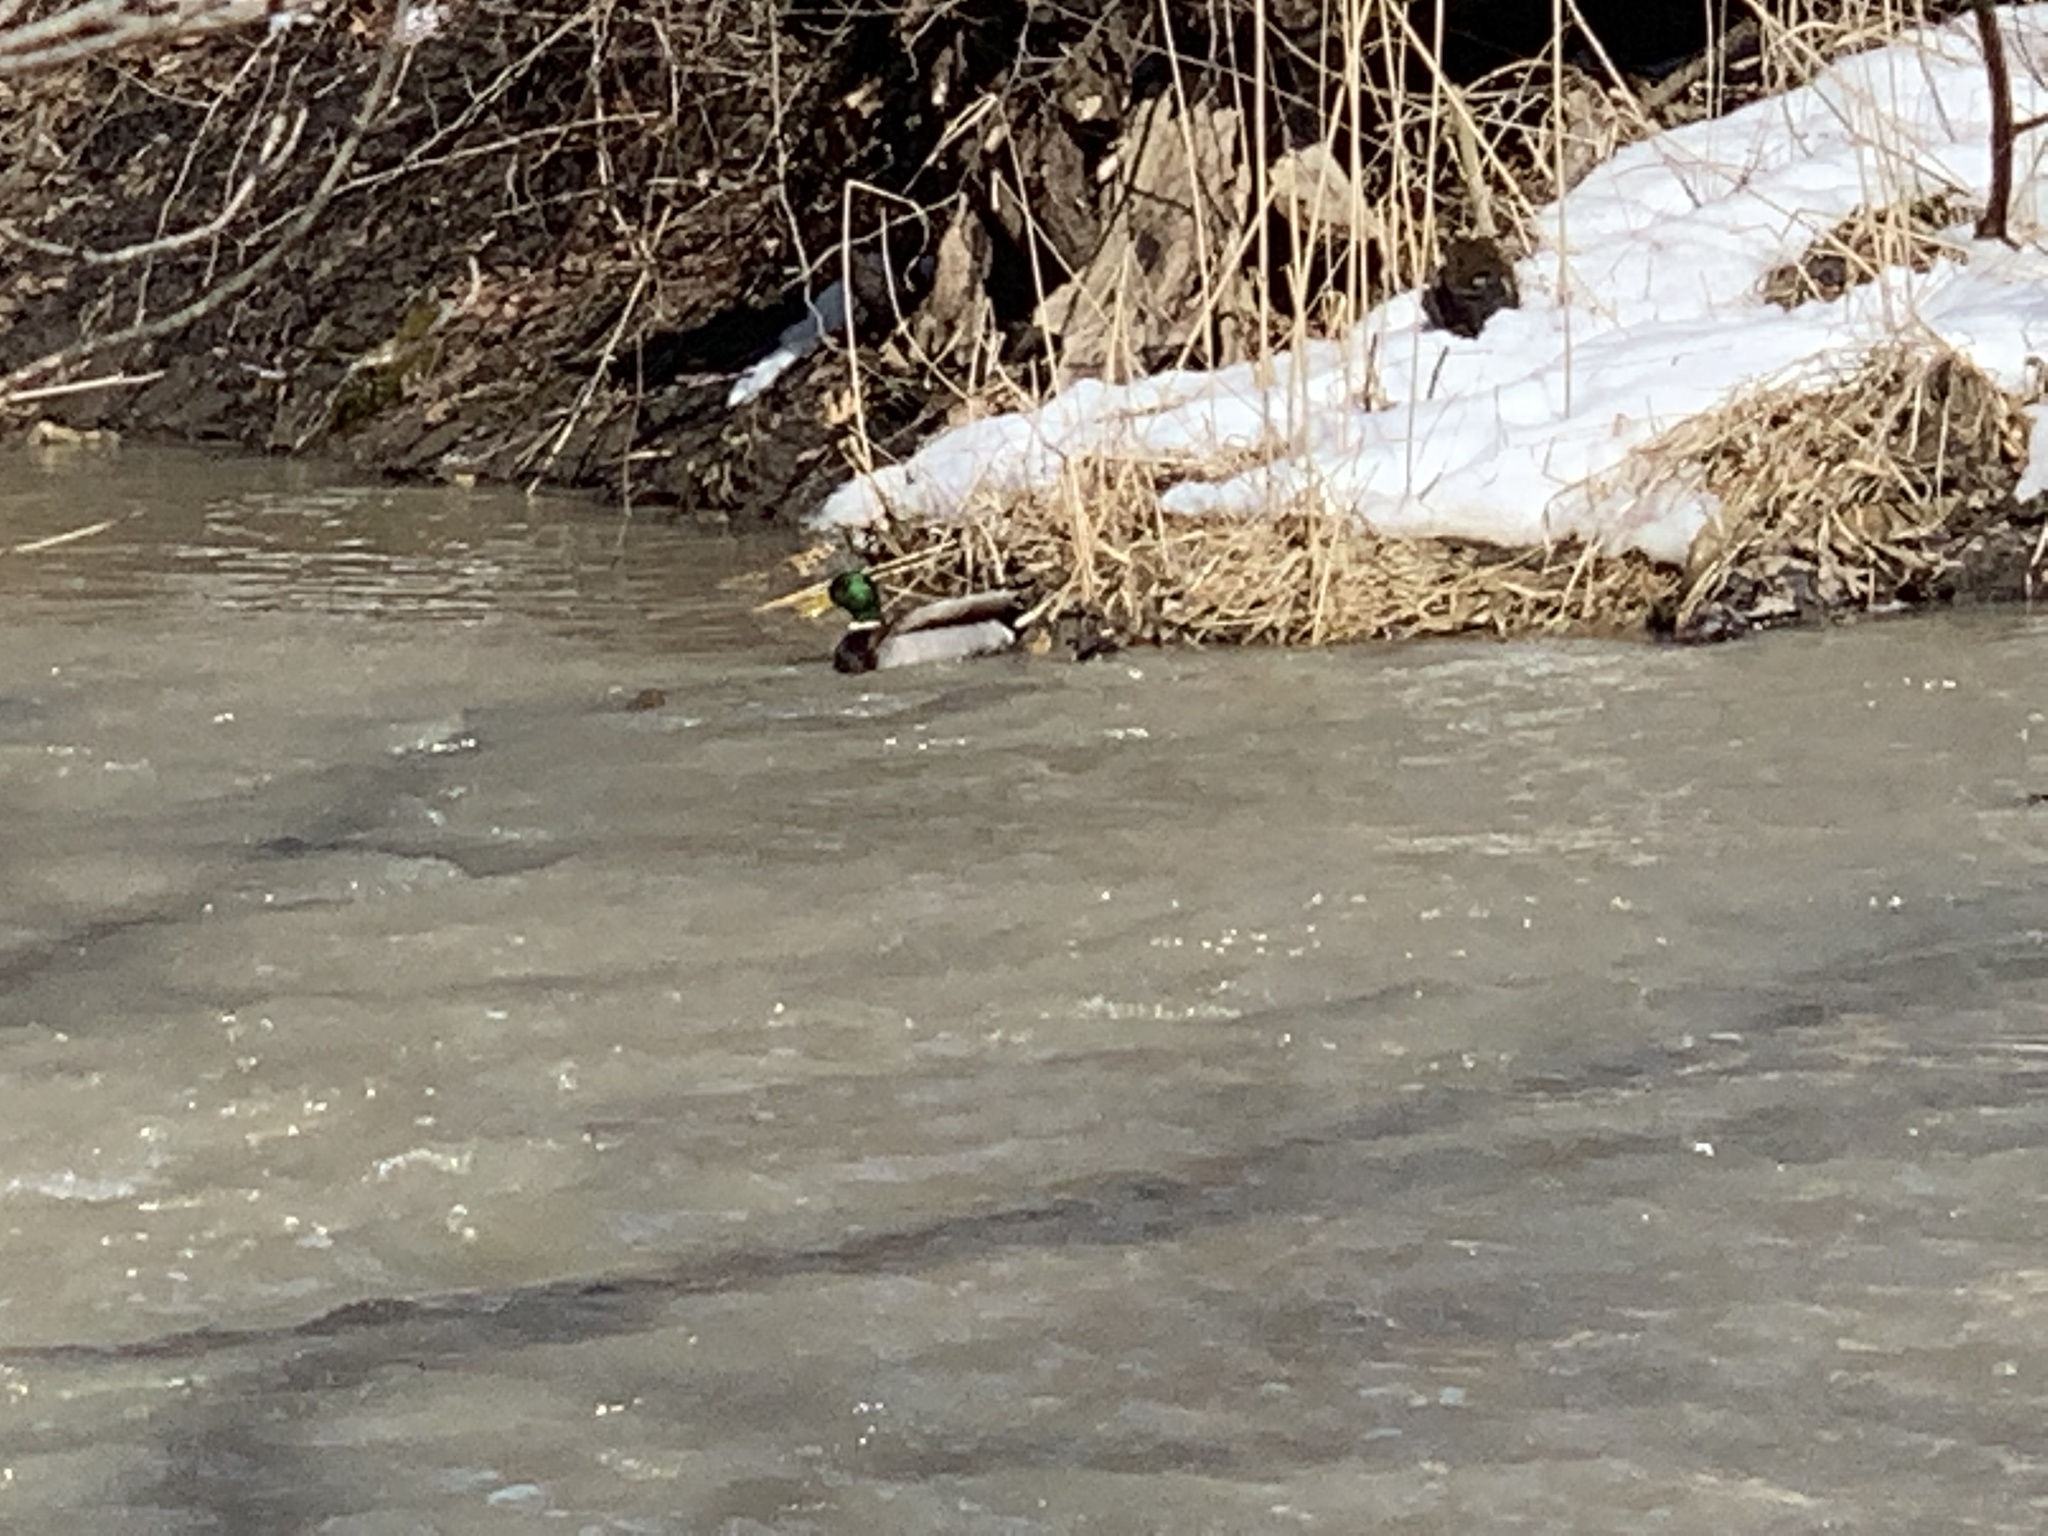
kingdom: Animalia
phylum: Chordata
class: Aves
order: Anseriformes
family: Anatidae
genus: Anas
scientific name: Anas platyrhynchos
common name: Mallard
